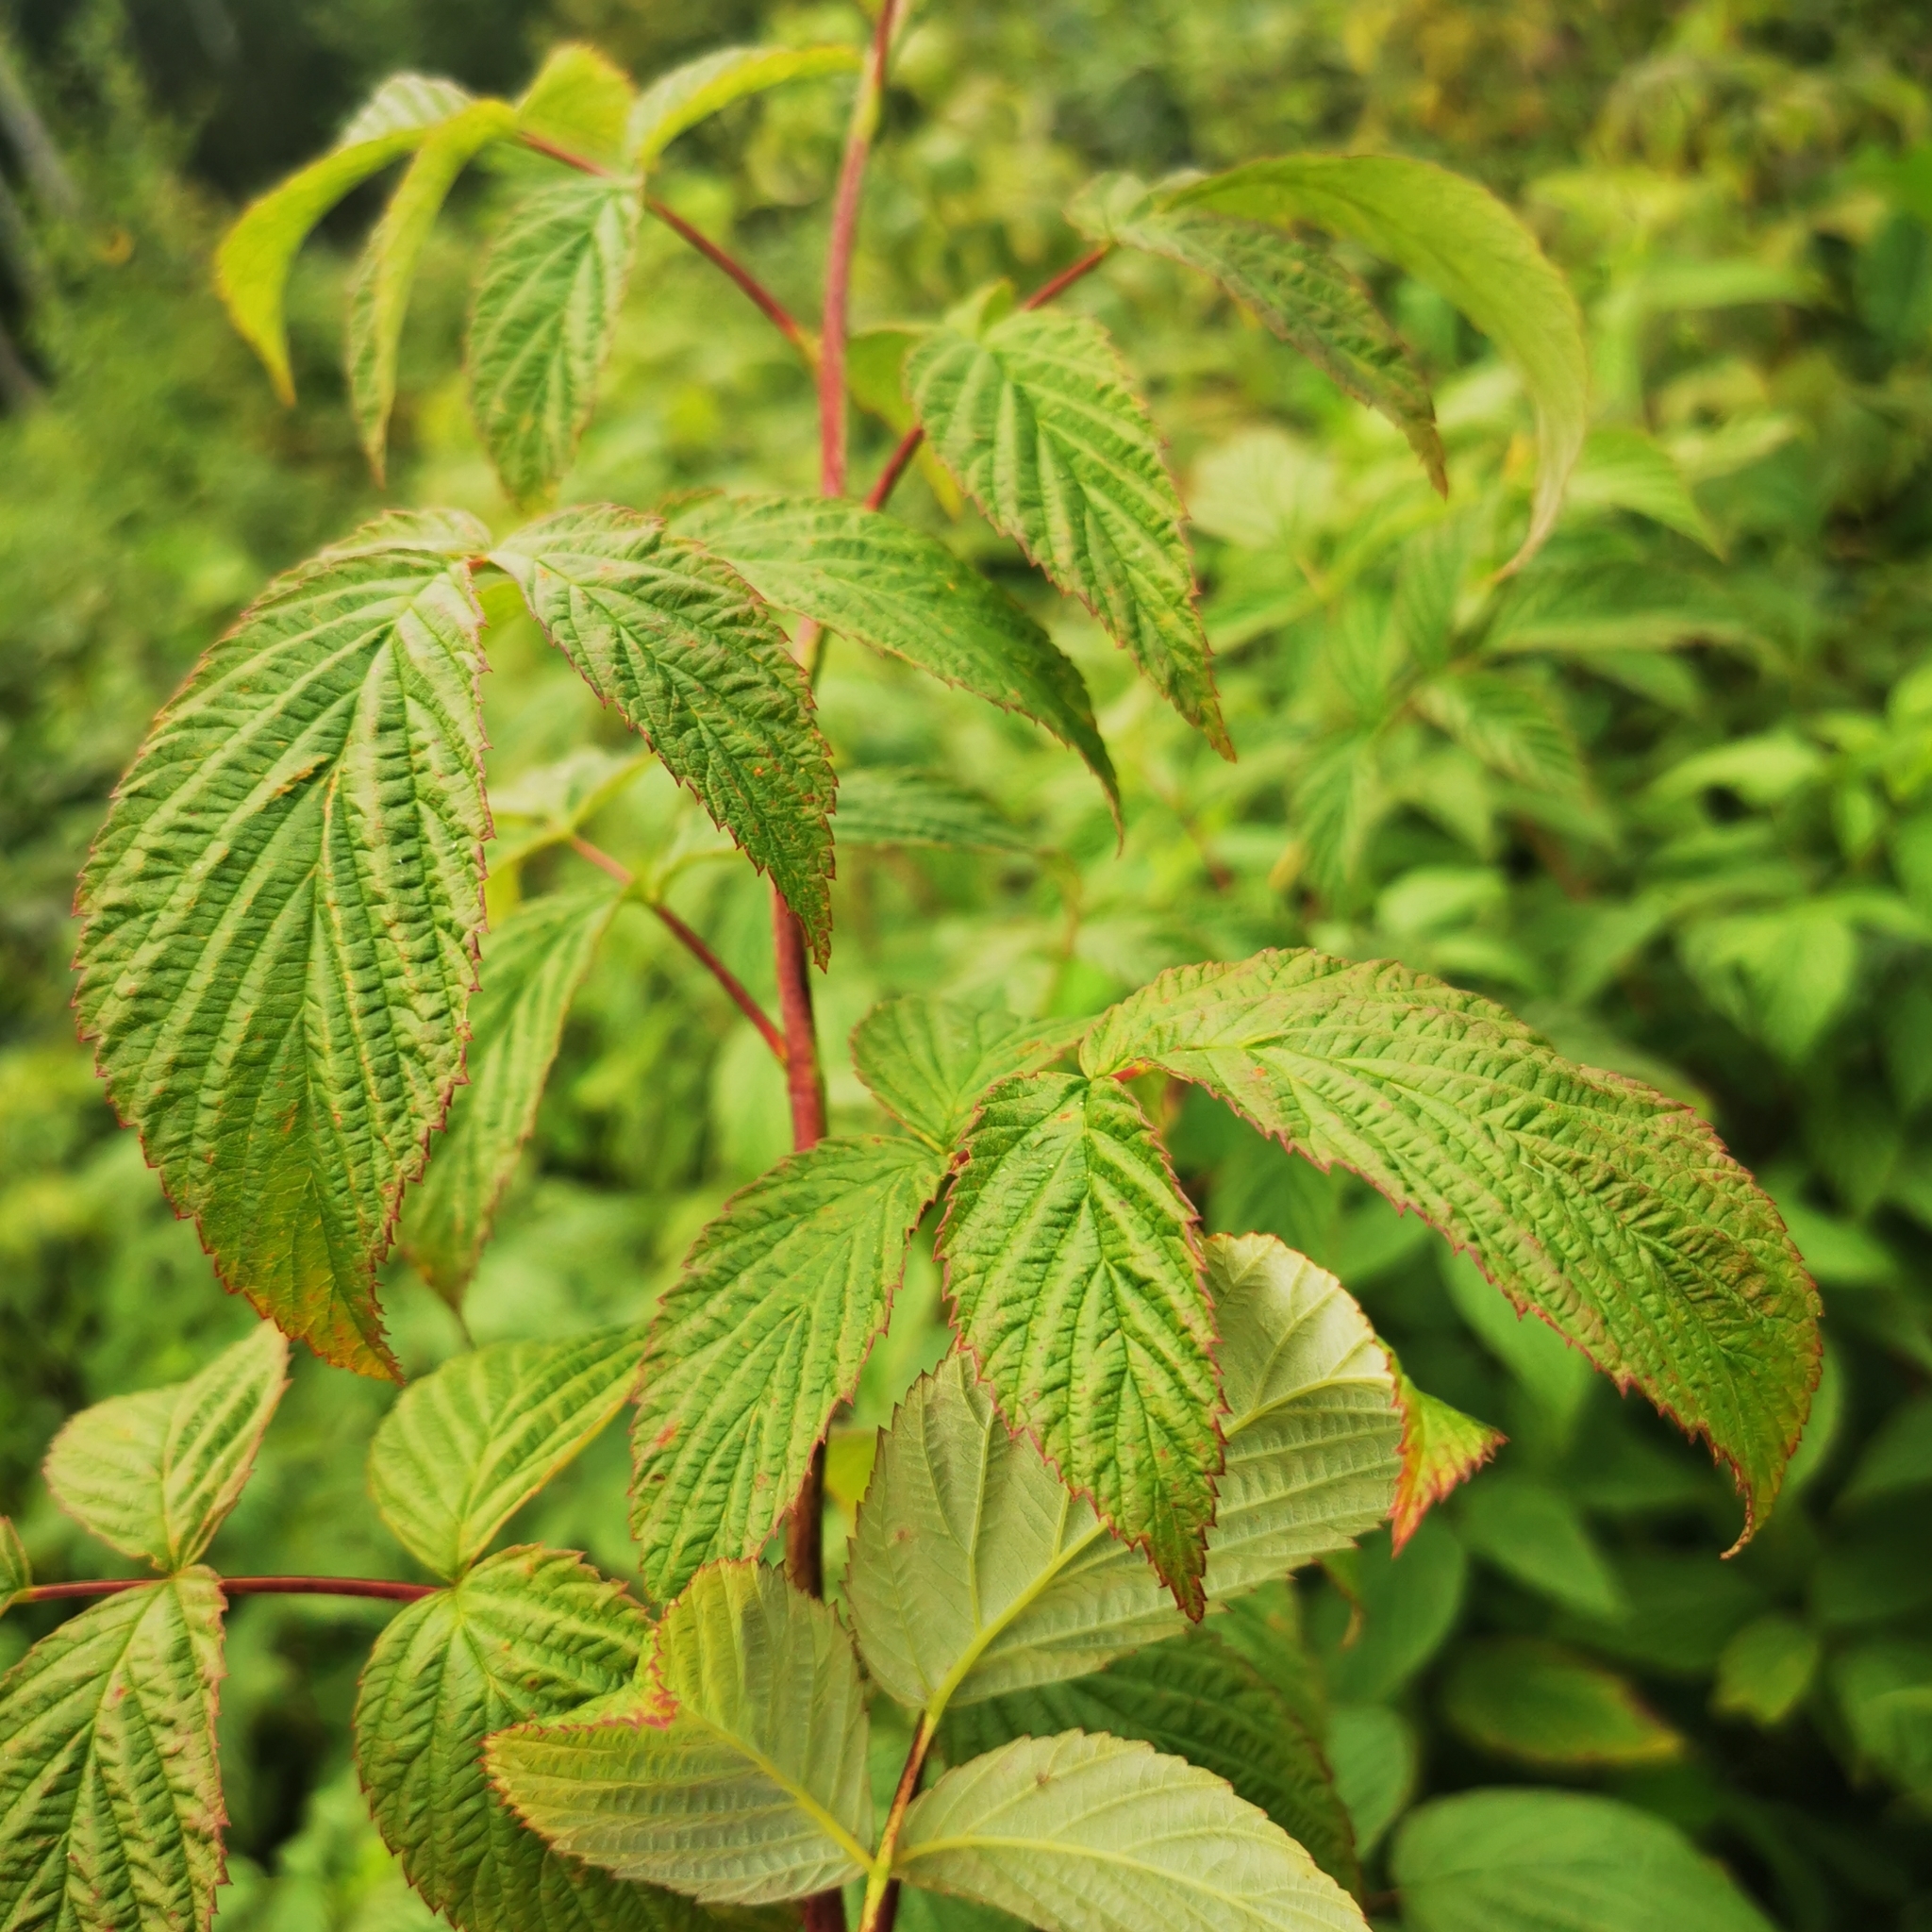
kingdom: Plantae
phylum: Tracheophyta
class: Magnoliopsida
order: Rosales
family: Rosaceae
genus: Rubus
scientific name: Rubus idaeus
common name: Raspberry
